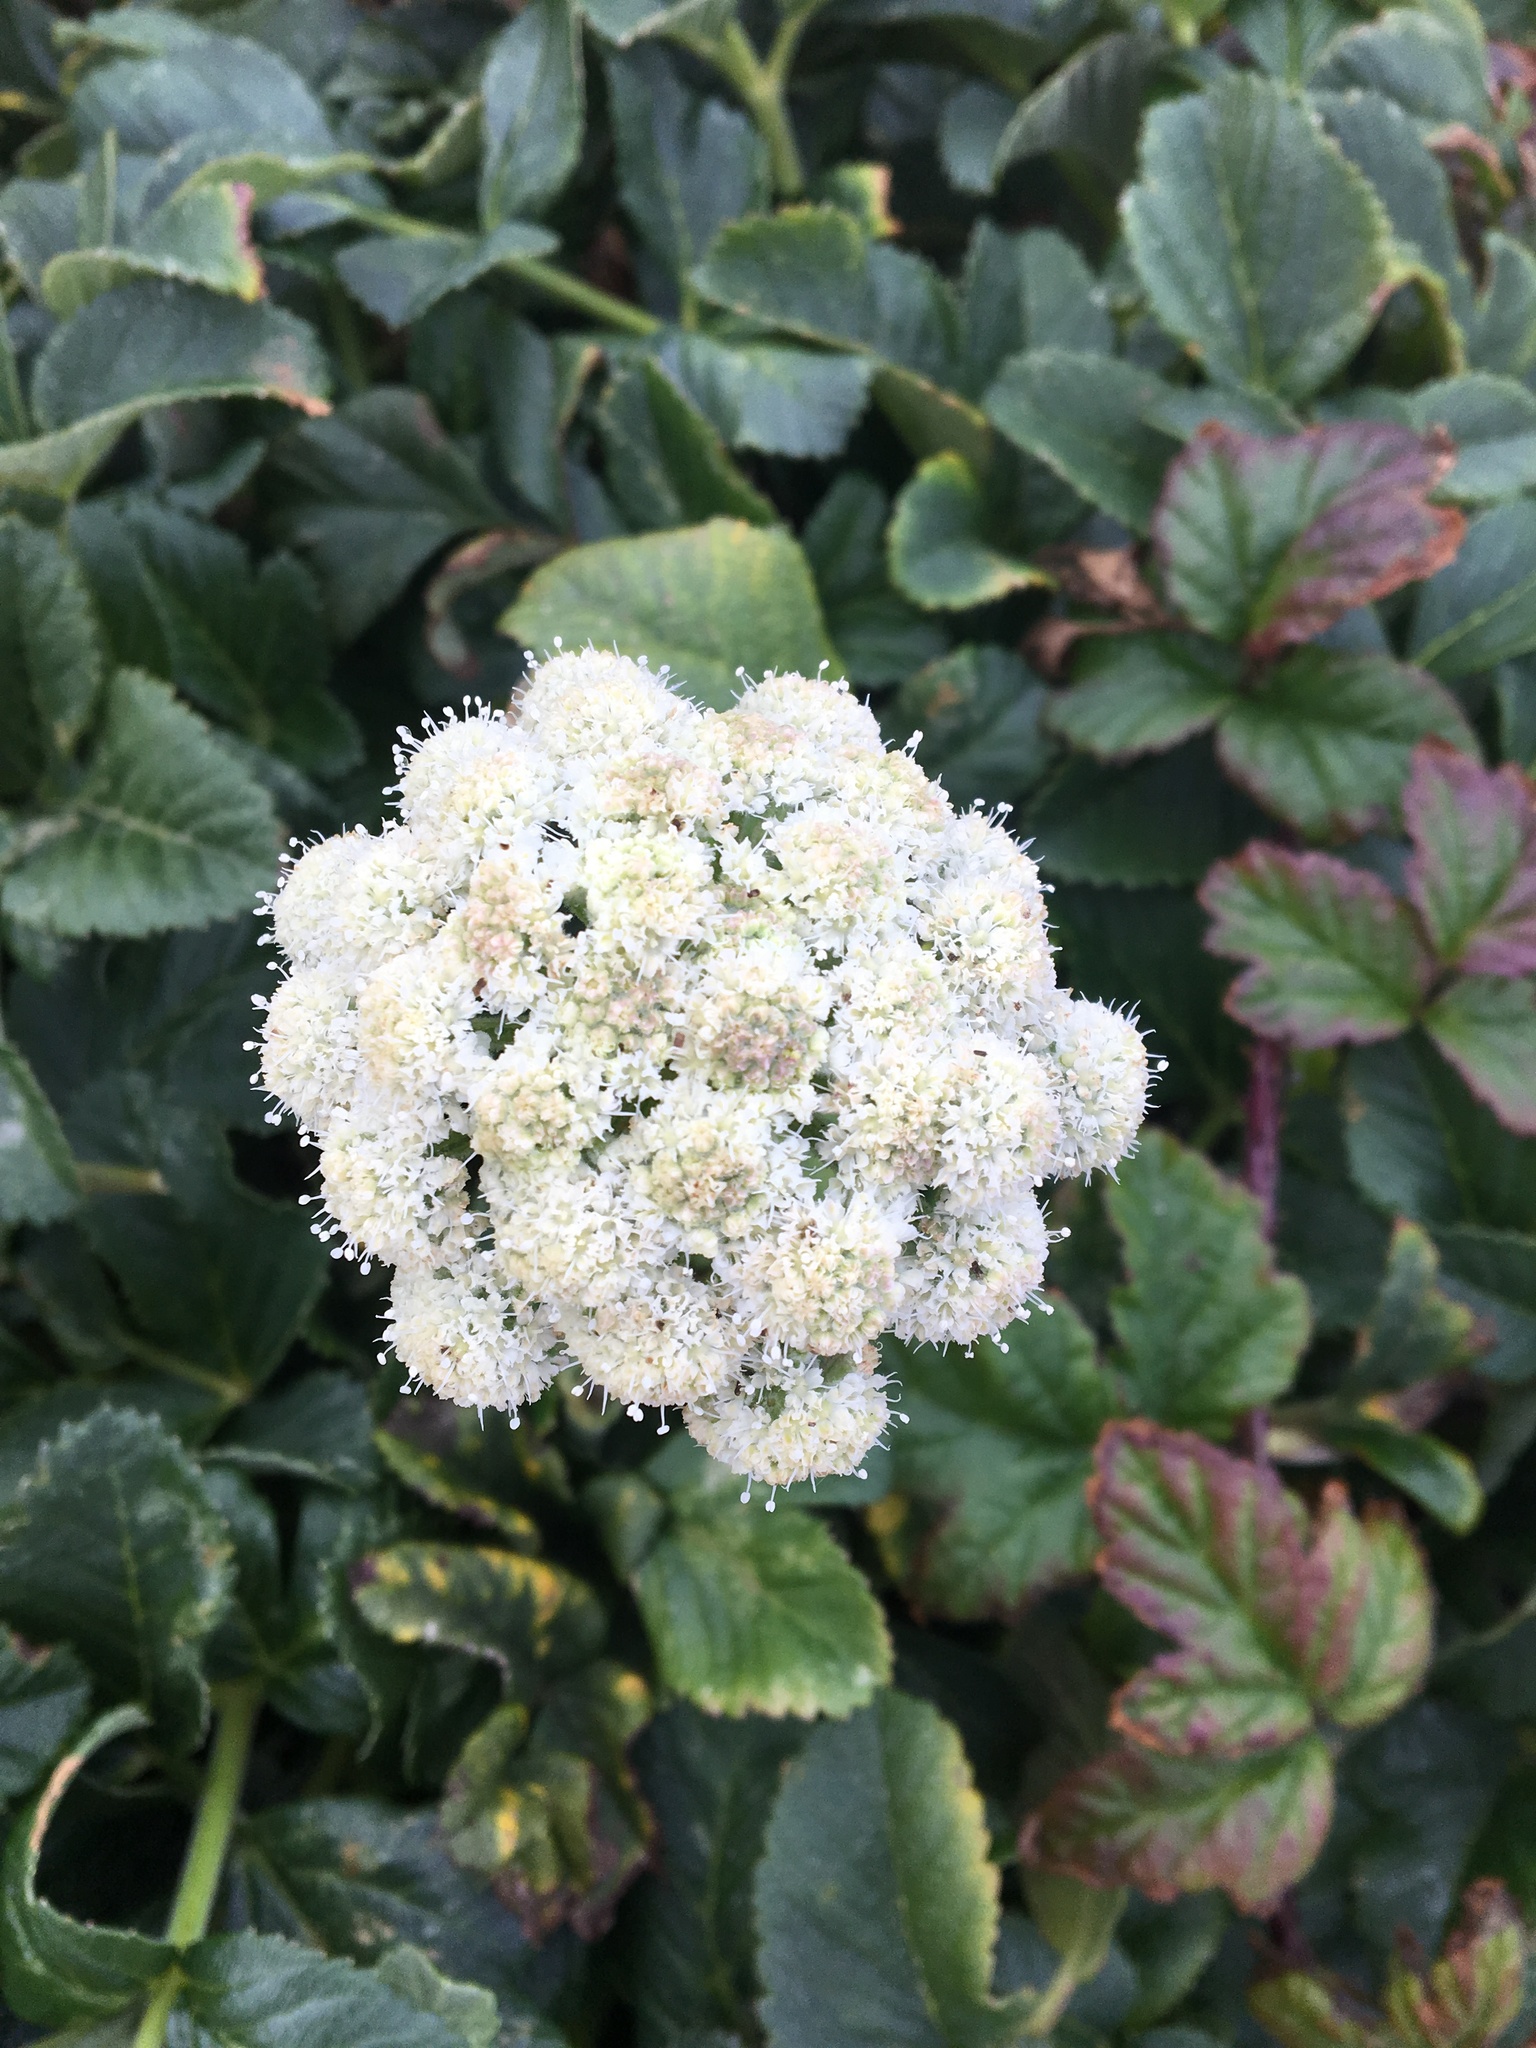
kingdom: Plantae
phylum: Tracheophyta
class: Magnoliopsida
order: Apiales
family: Apiaceae
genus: Angelica
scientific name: Angelica lucida
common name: Seabeach angelica
